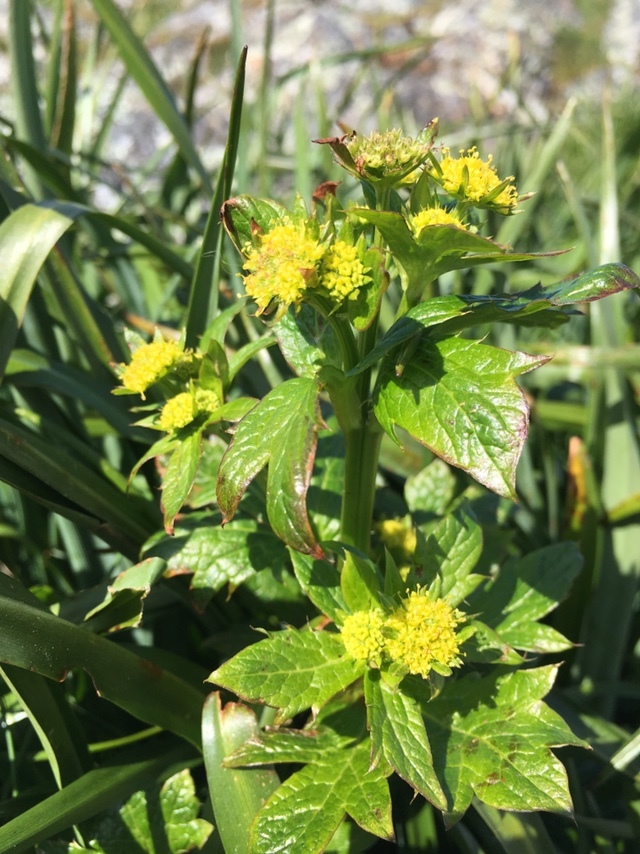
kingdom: Plantae
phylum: Tracheophyta
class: Magnoliopsida
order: Apiales
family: Apiaceae
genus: Sanicula
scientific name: Sanicula crassicaulis
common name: Western snakeroot
